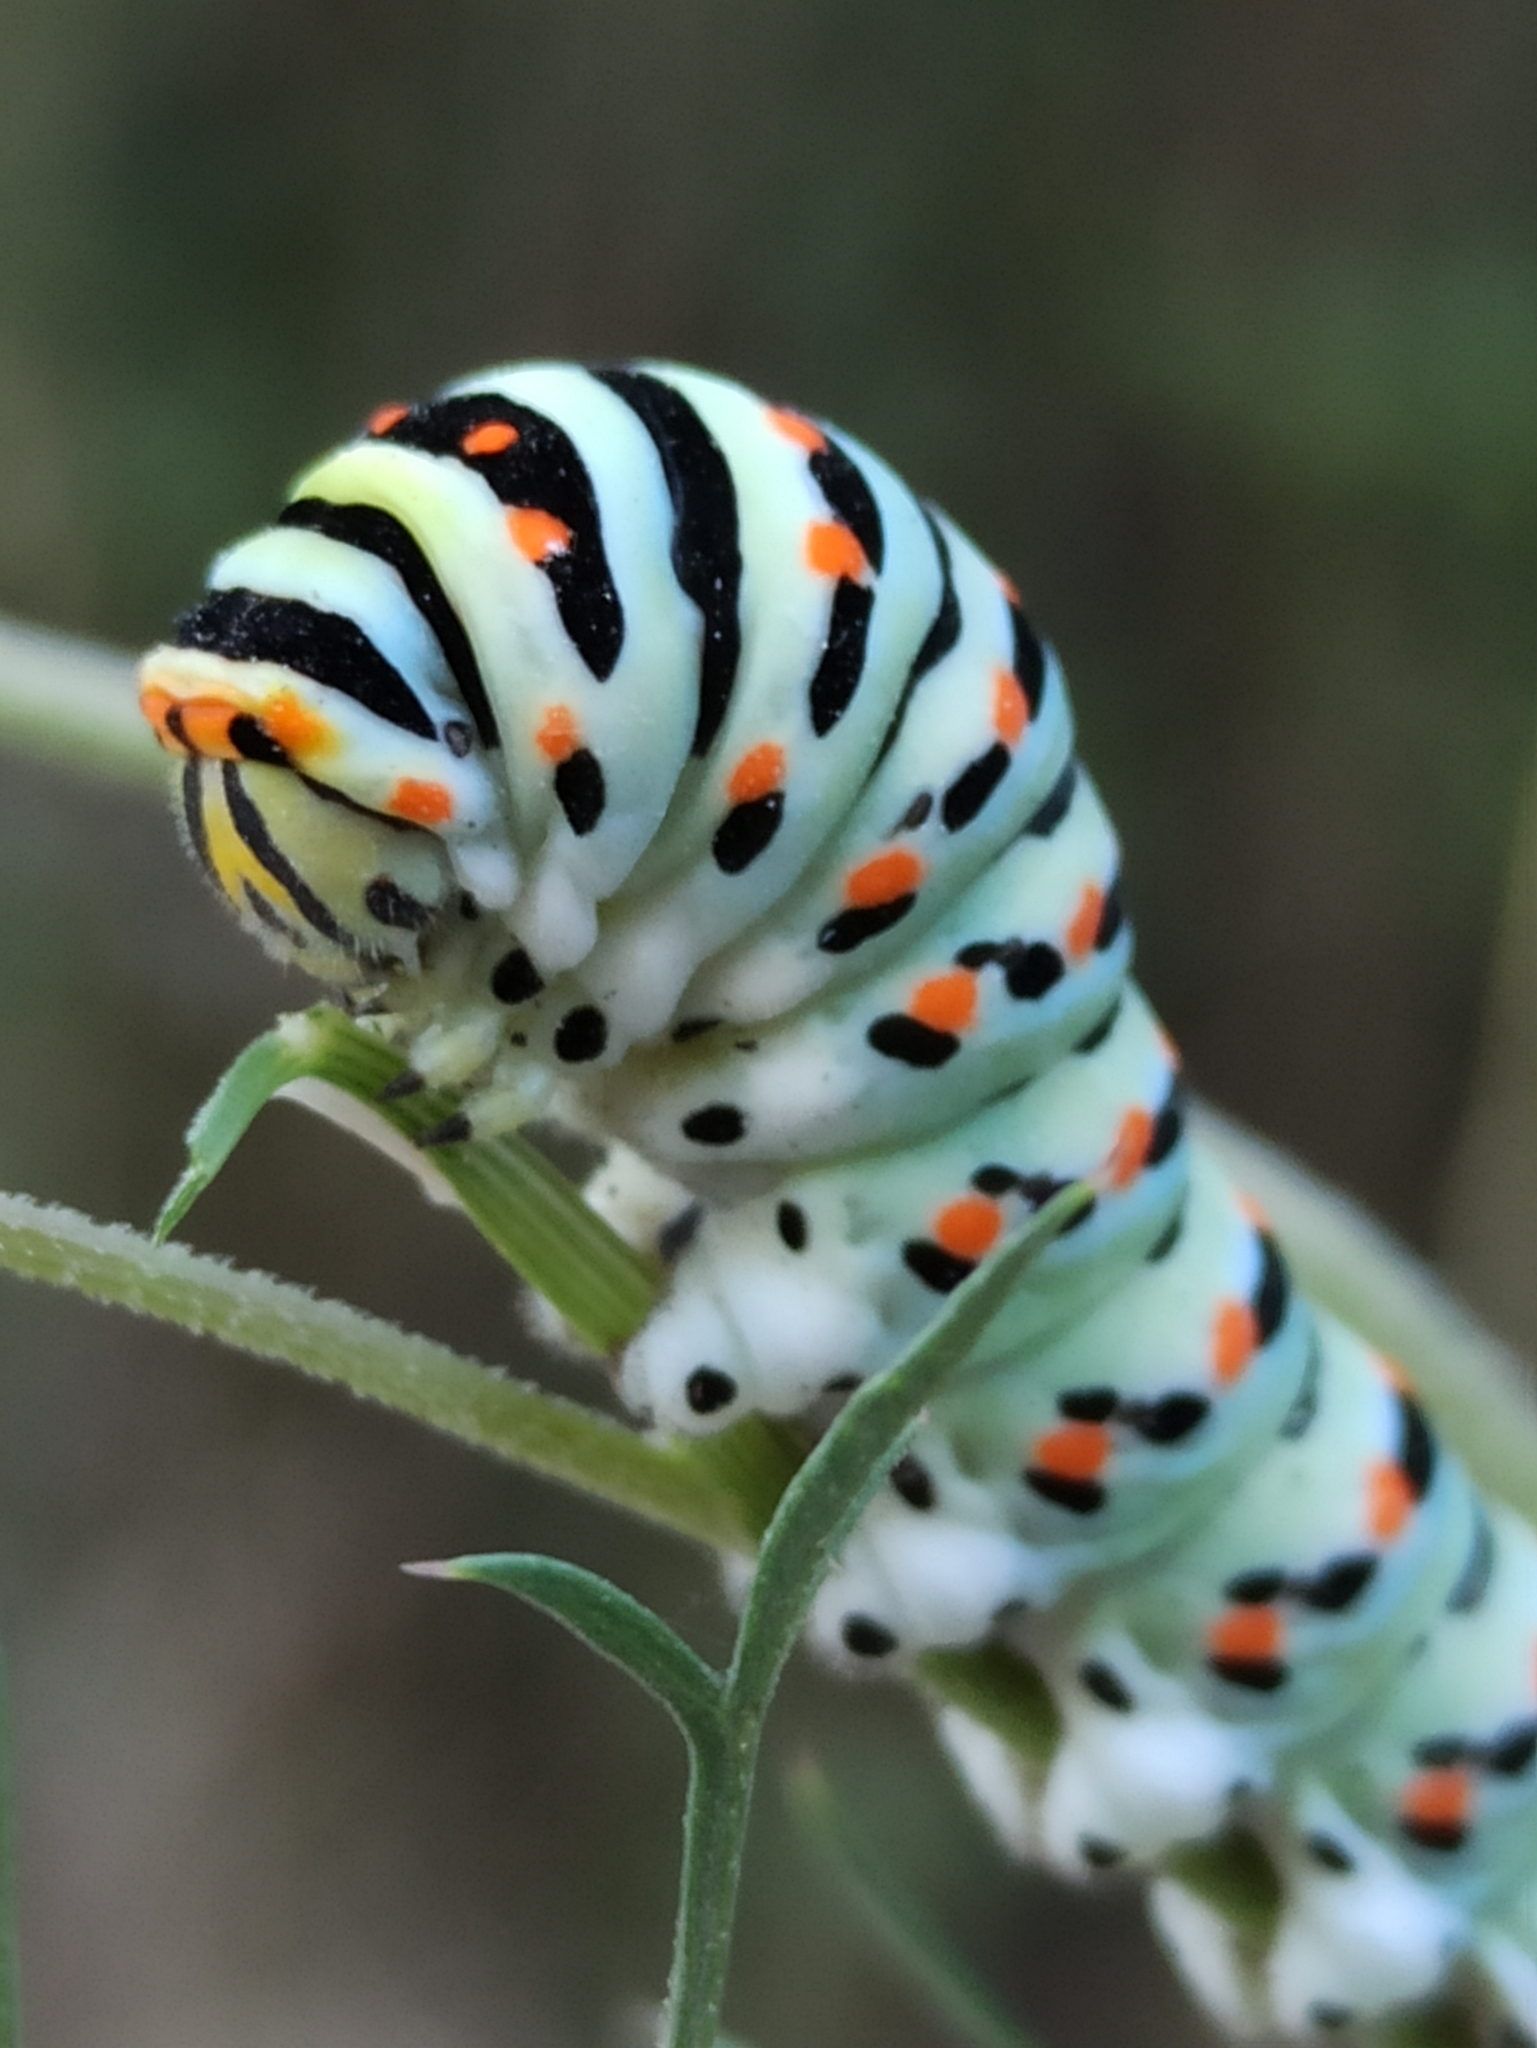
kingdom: Animalia
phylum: Arthropoda
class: Insecta
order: Lepidoptera
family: Papilionidae
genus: Papilio
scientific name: Papilio machaon
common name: Swallowtail
